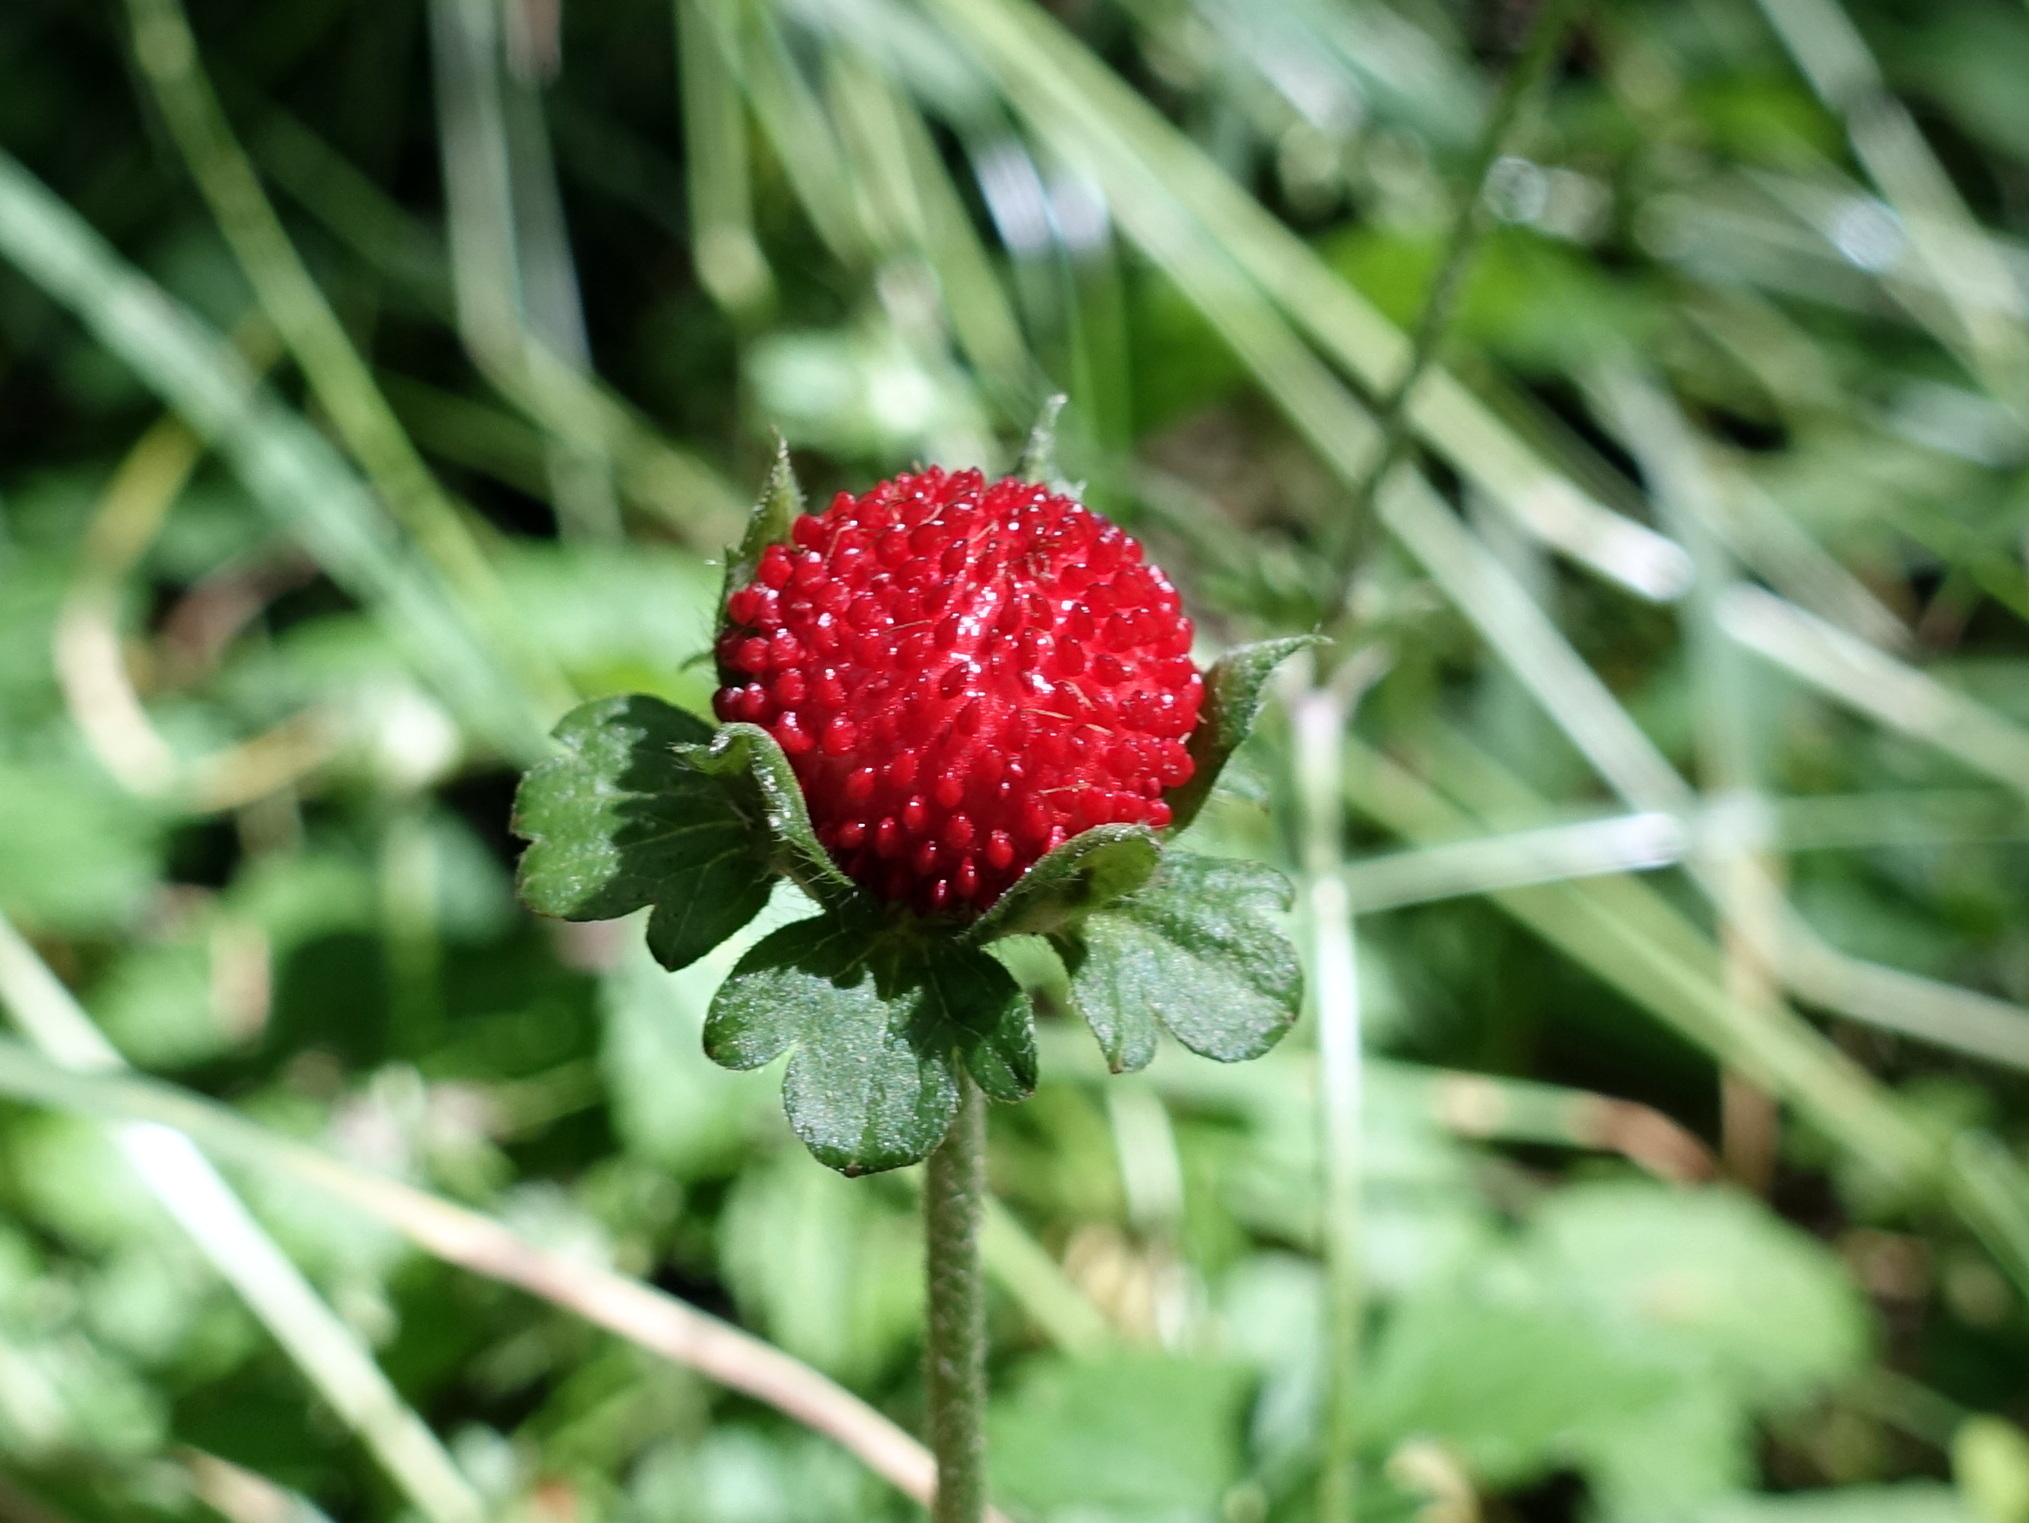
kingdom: Plantae
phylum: Tracheophyta
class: Magnoliopsida
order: Rosales
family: Rosaceae
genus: Potentilla
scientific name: Potentilla indica
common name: Yellow-flowered strawberry
